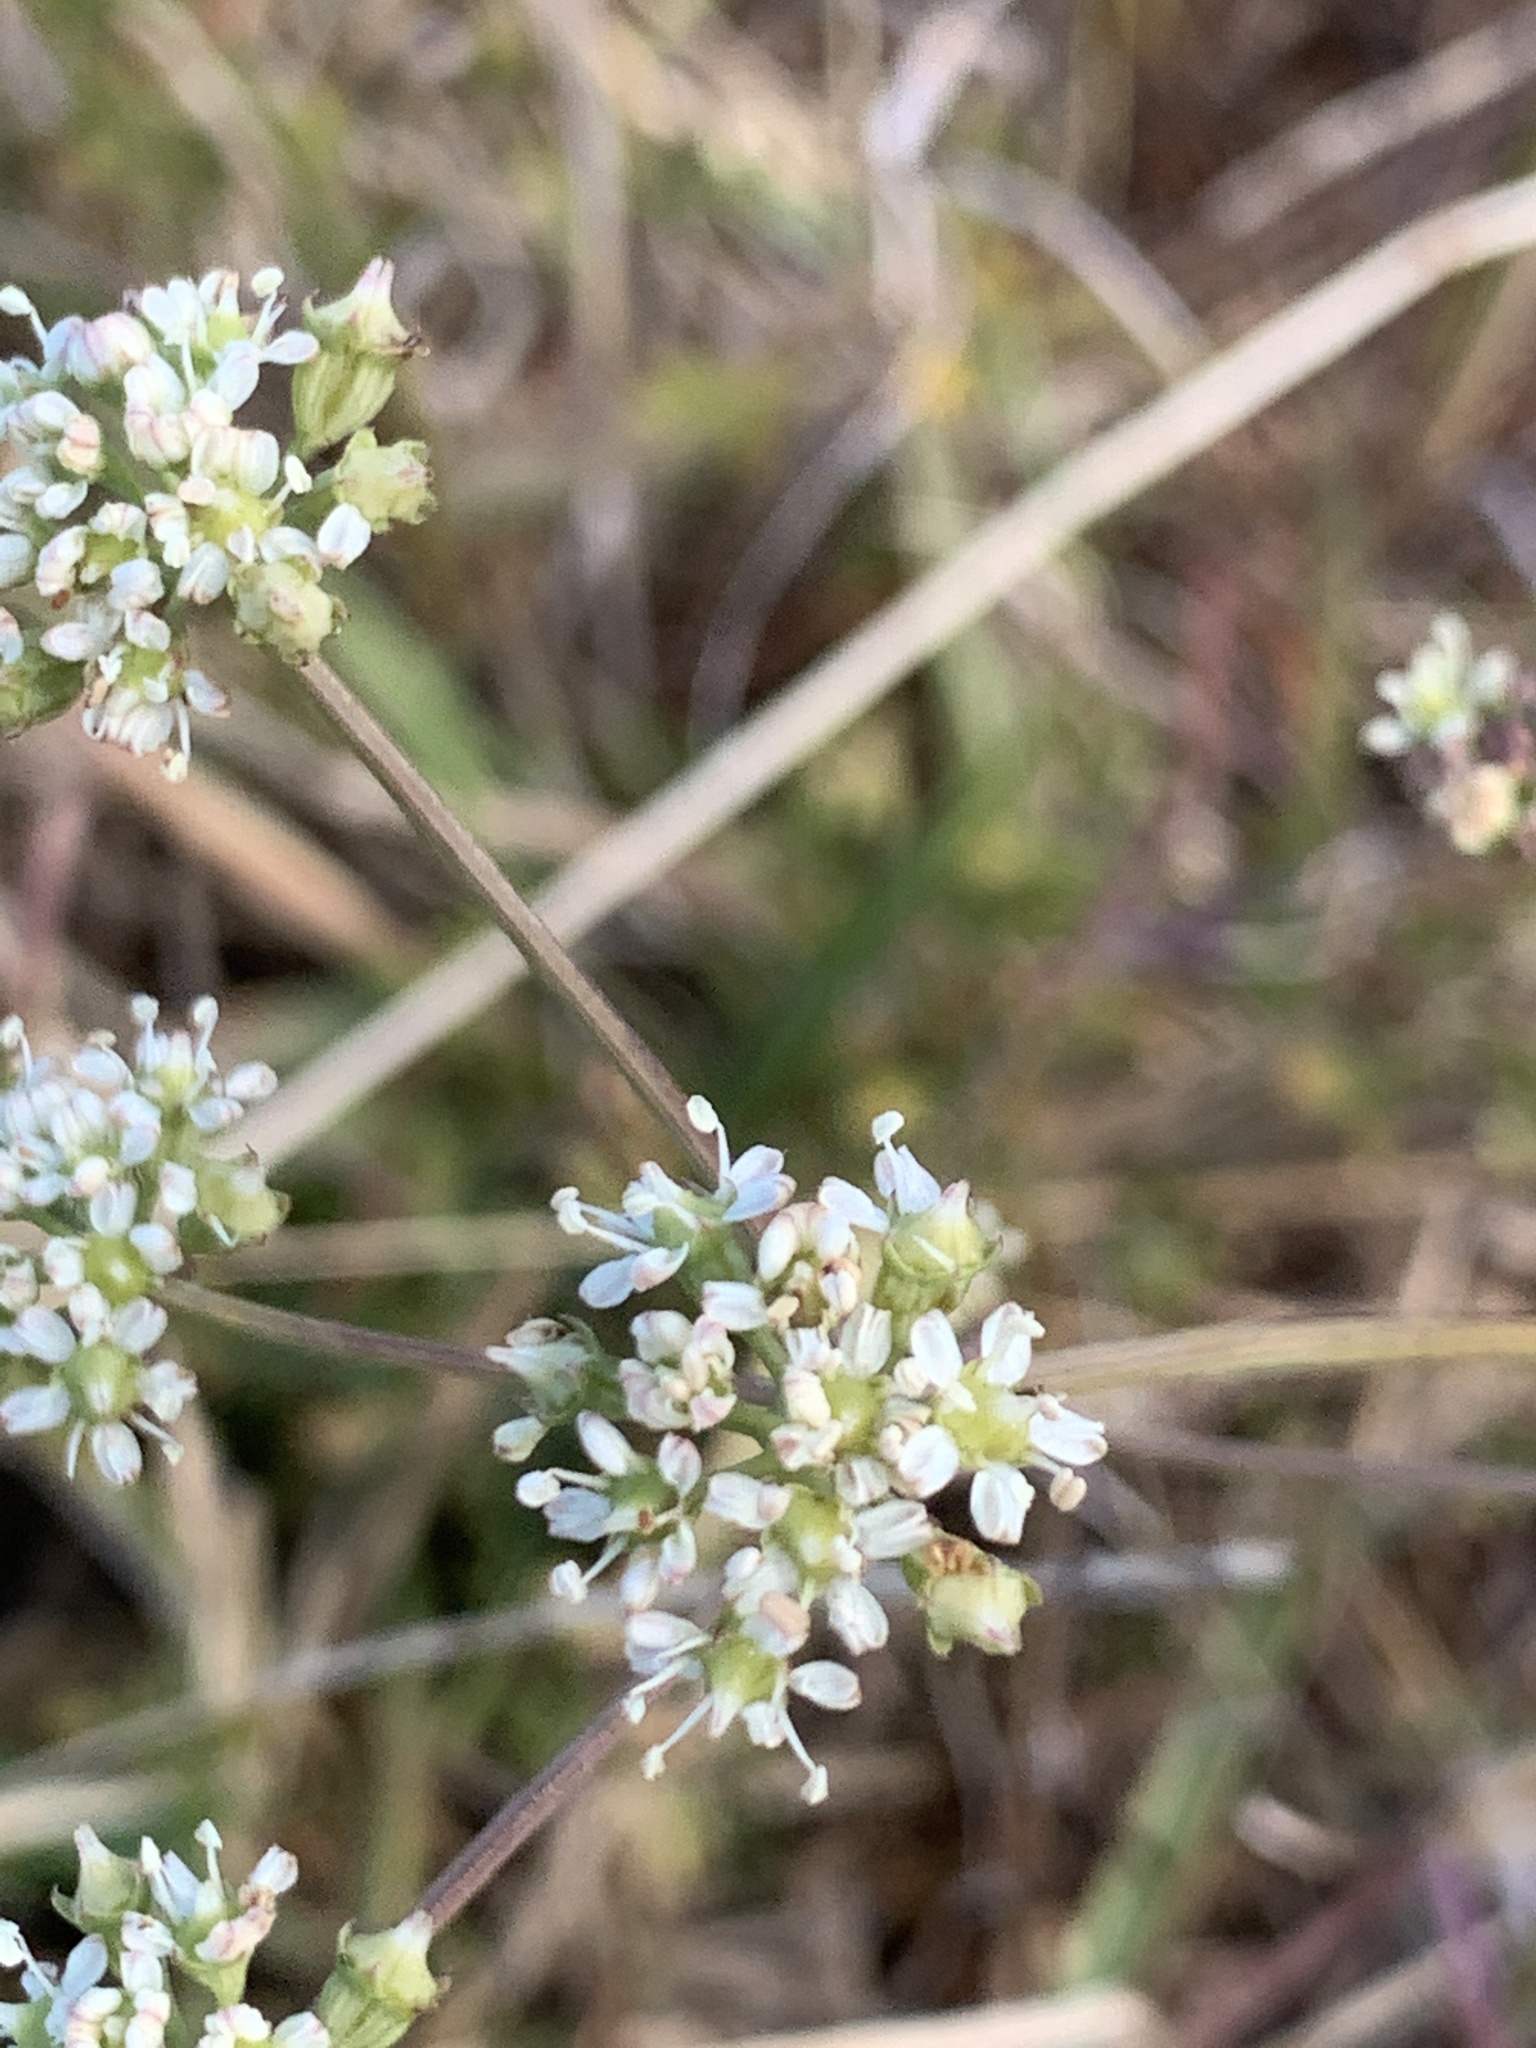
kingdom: Plantae
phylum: Tracheophyta
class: Magnoliopsida
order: Apiales
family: Apiaceae
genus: Lichtensteinia
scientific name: Lichtensteinia obscura
